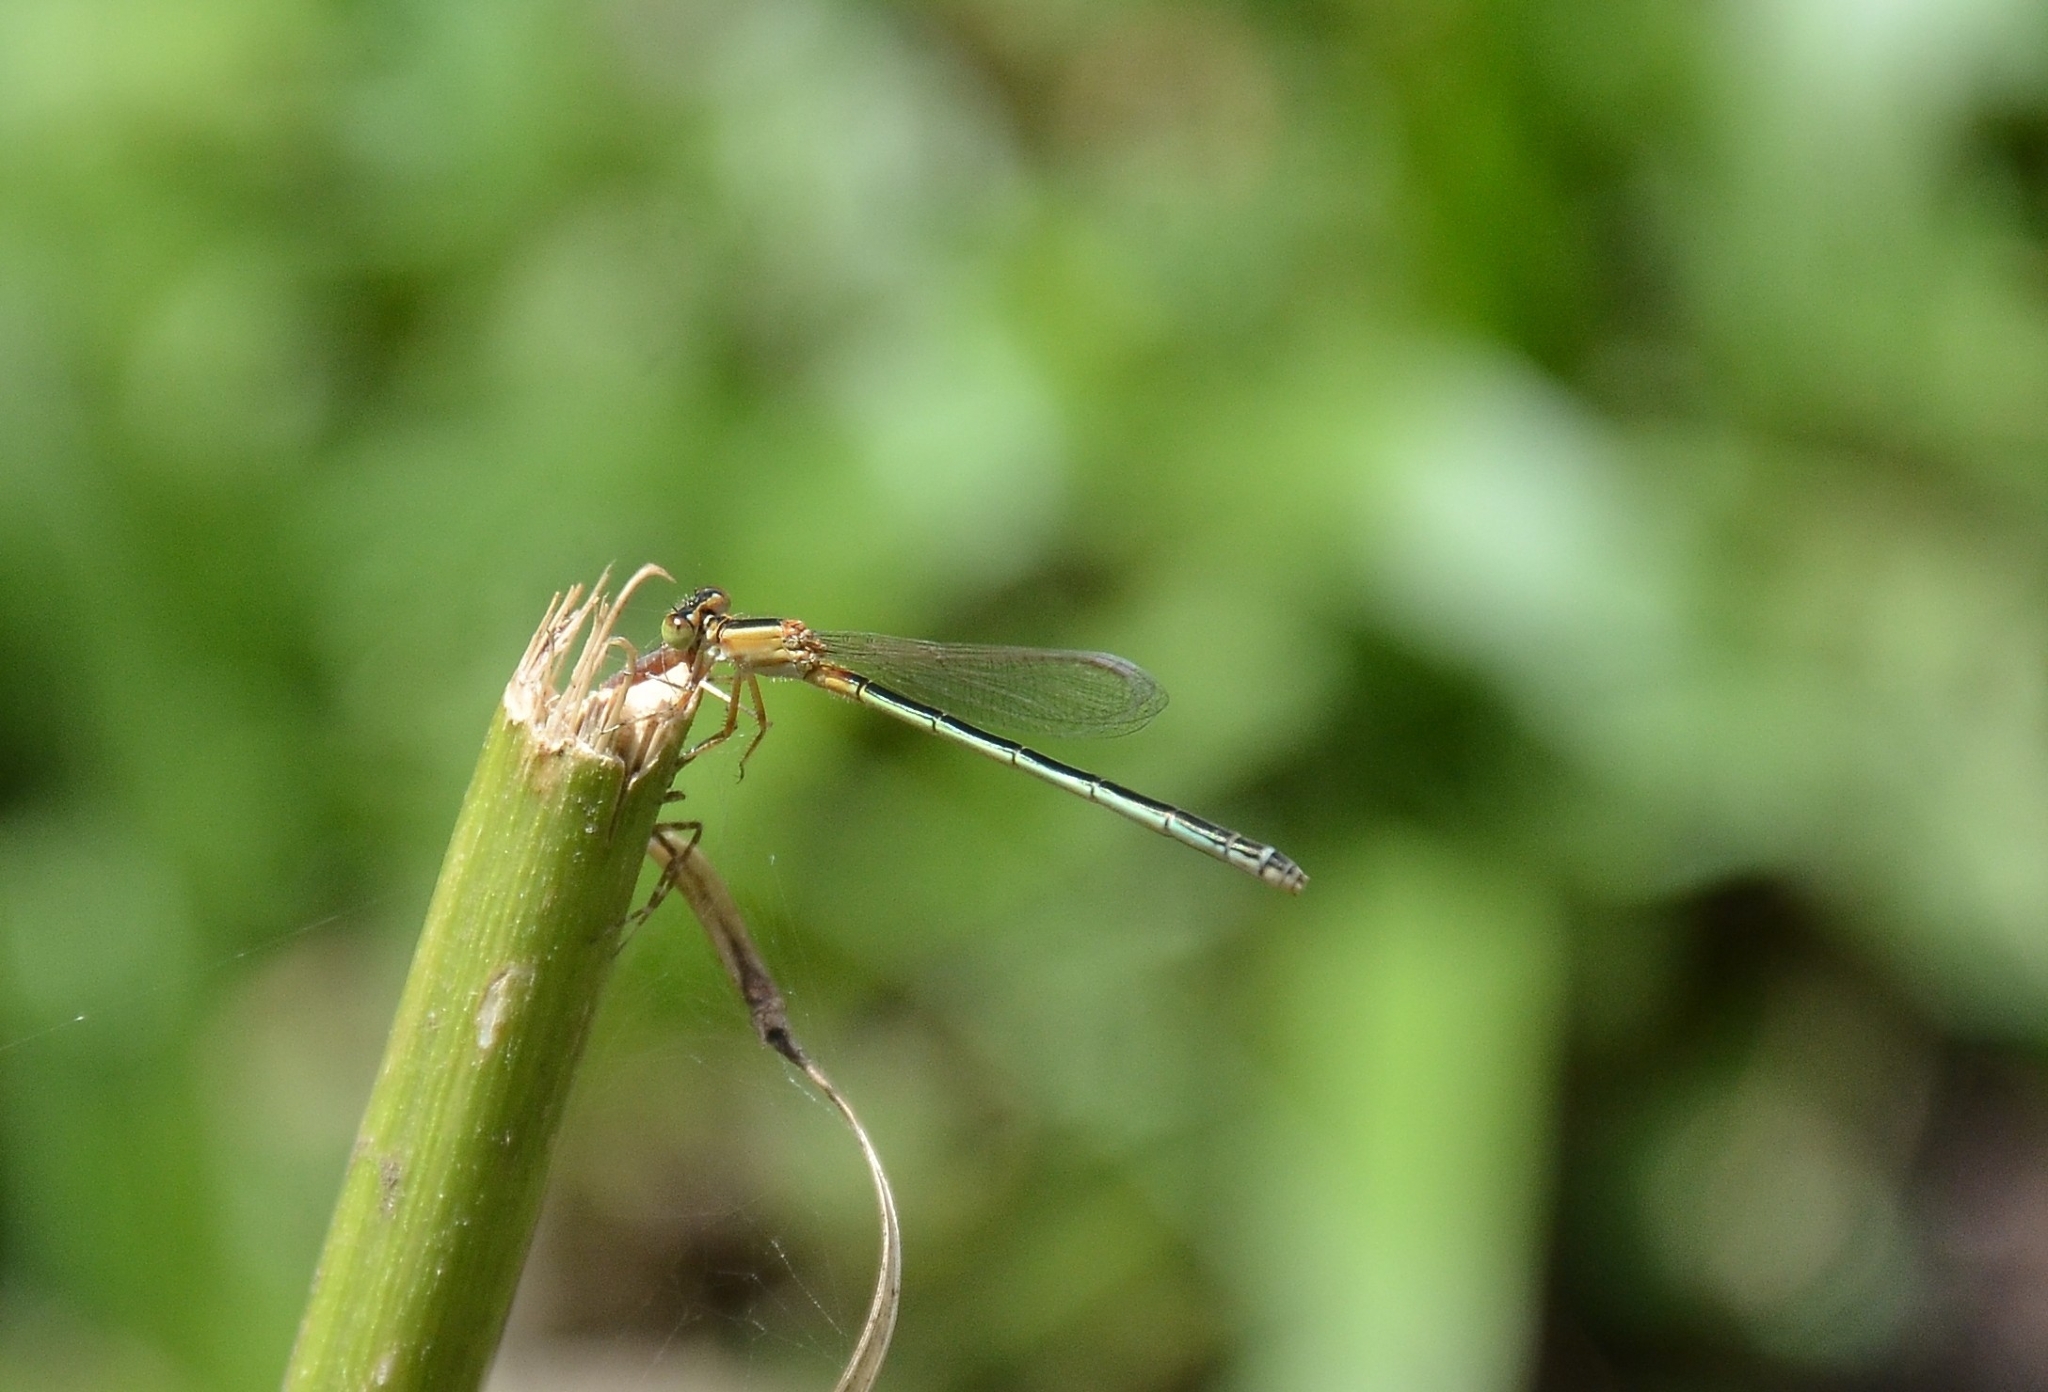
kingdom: Animalia
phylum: Arthropoda
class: Insecta
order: Odonata
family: Coenagrionidae
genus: Ischnura
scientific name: Ischnura senegalensis
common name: Tropical bluetail
